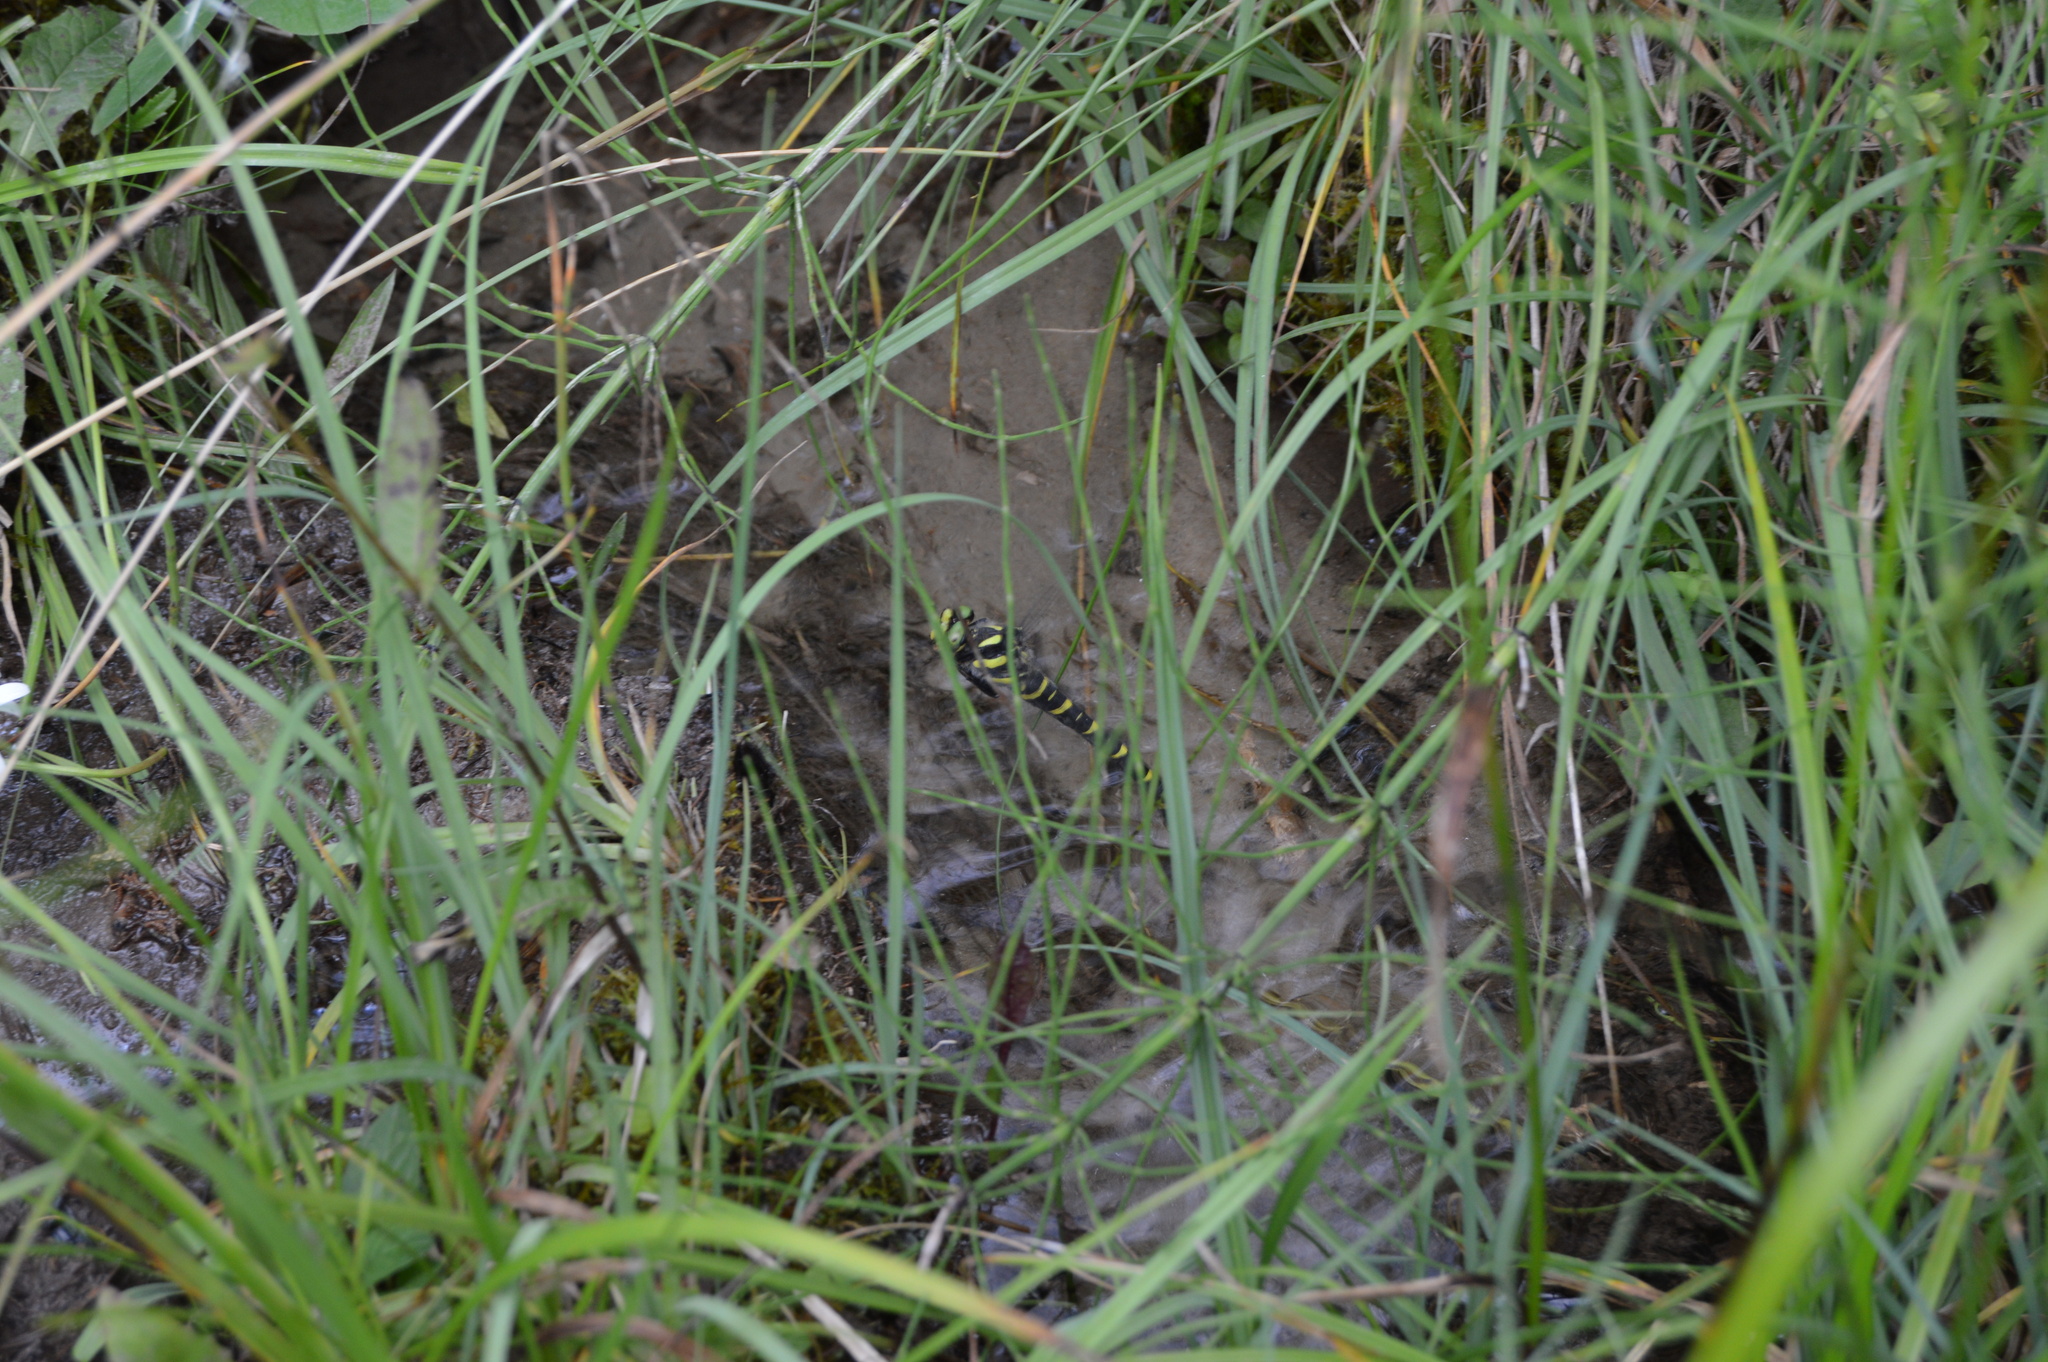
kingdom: Animalia
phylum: Arthropoda
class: Insecta
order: Odonata
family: Cordulegastridae
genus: Cordulegaster
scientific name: Cordulegaster bidentata
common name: Sombre goldenring
